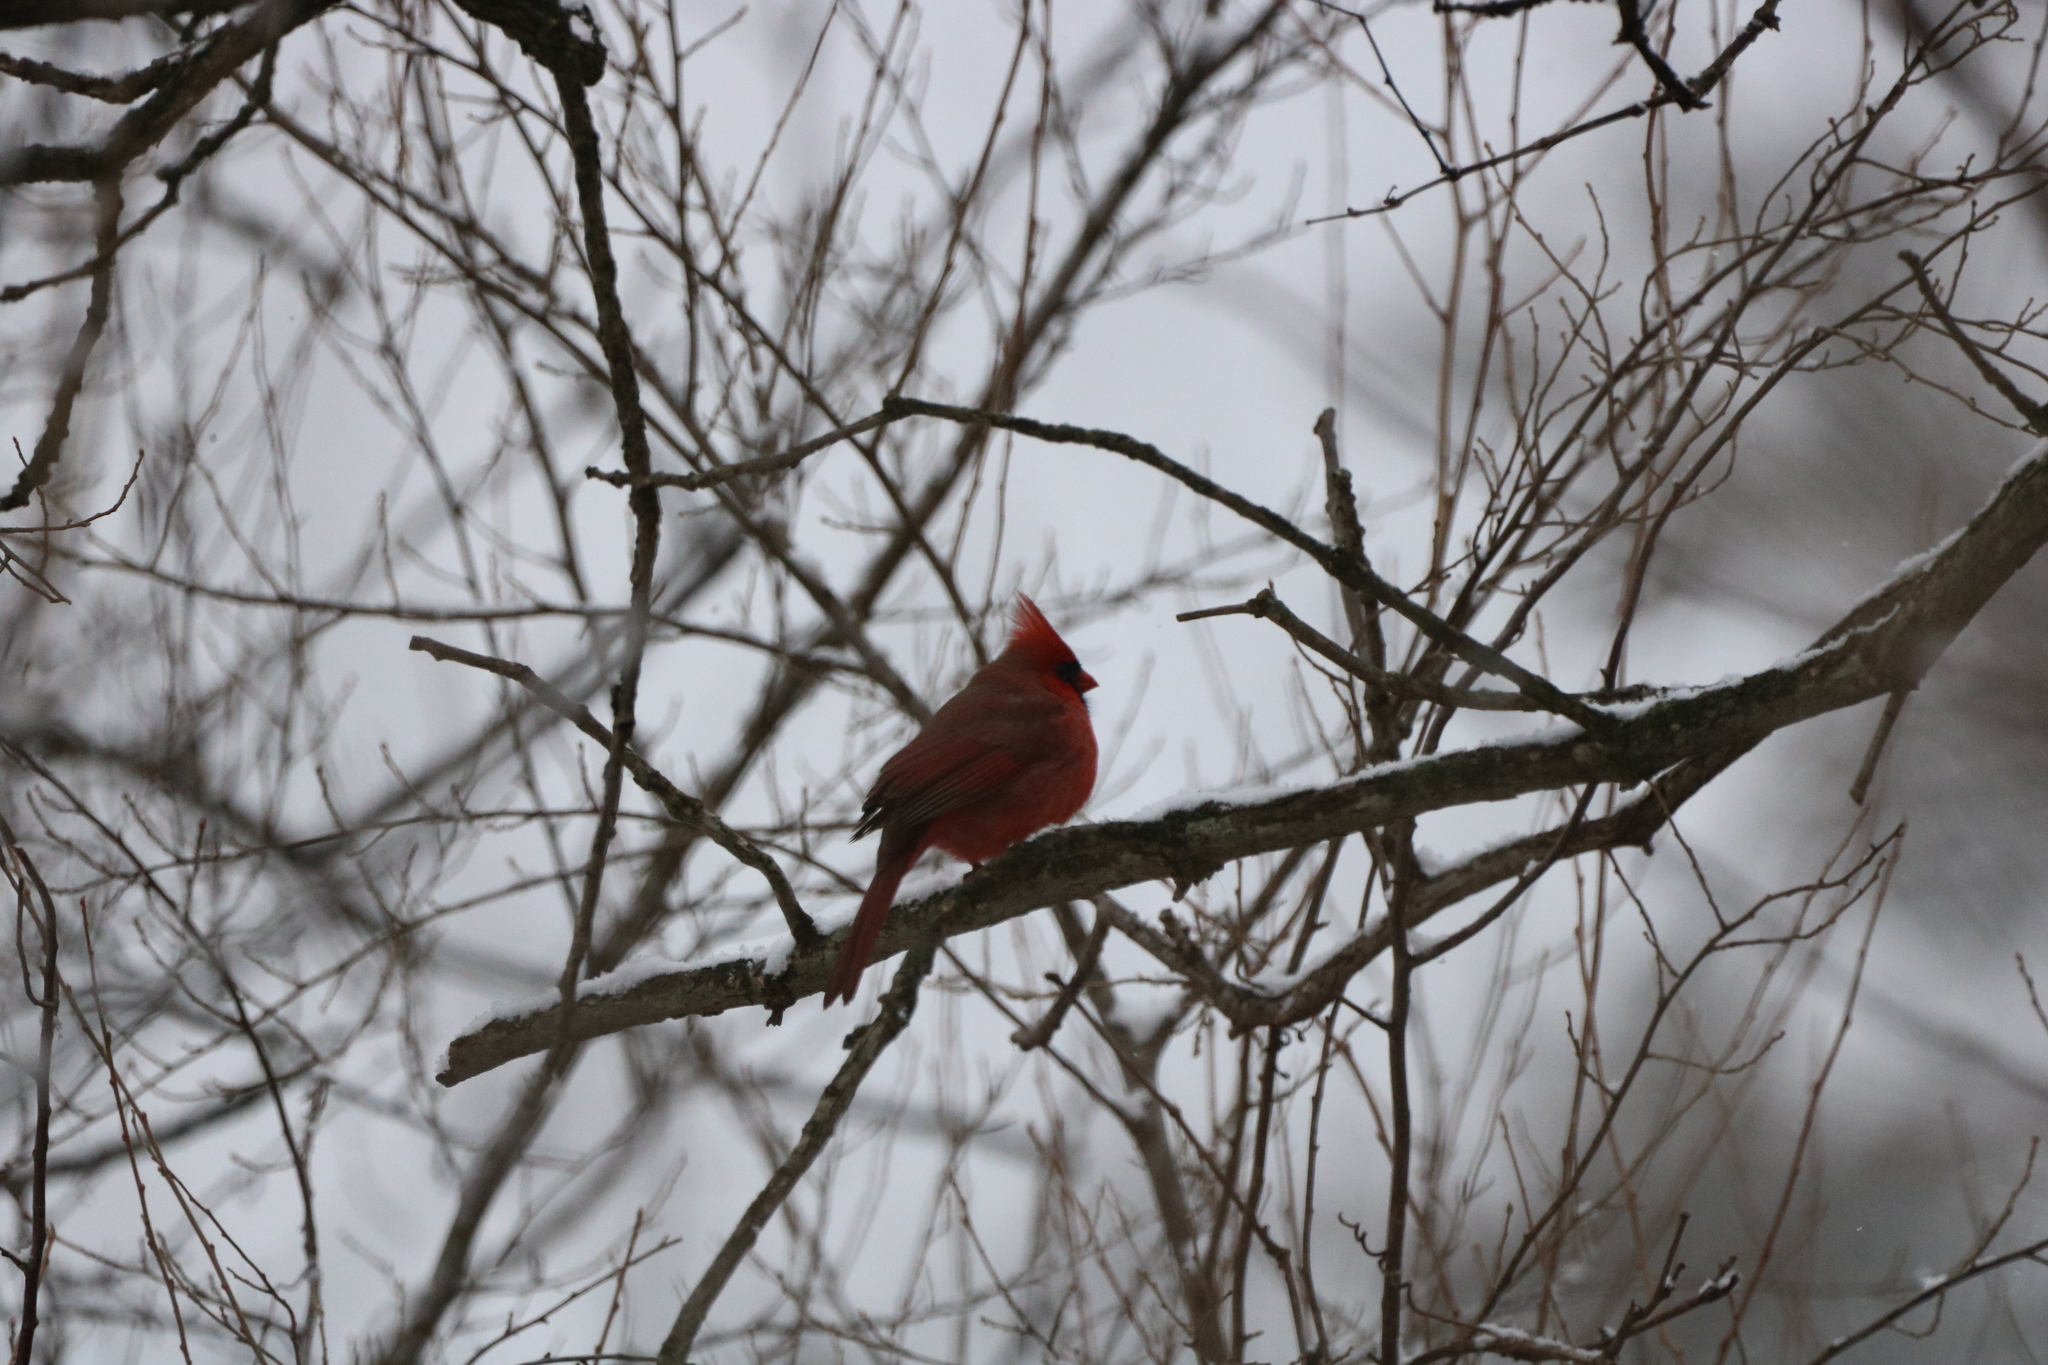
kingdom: Animalia
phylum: Chordata
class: Aves
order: Passeriformes
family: Cardinalidae
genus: Cardinalis
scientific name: Cardinalis cardinalis
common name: Northern cardinal
